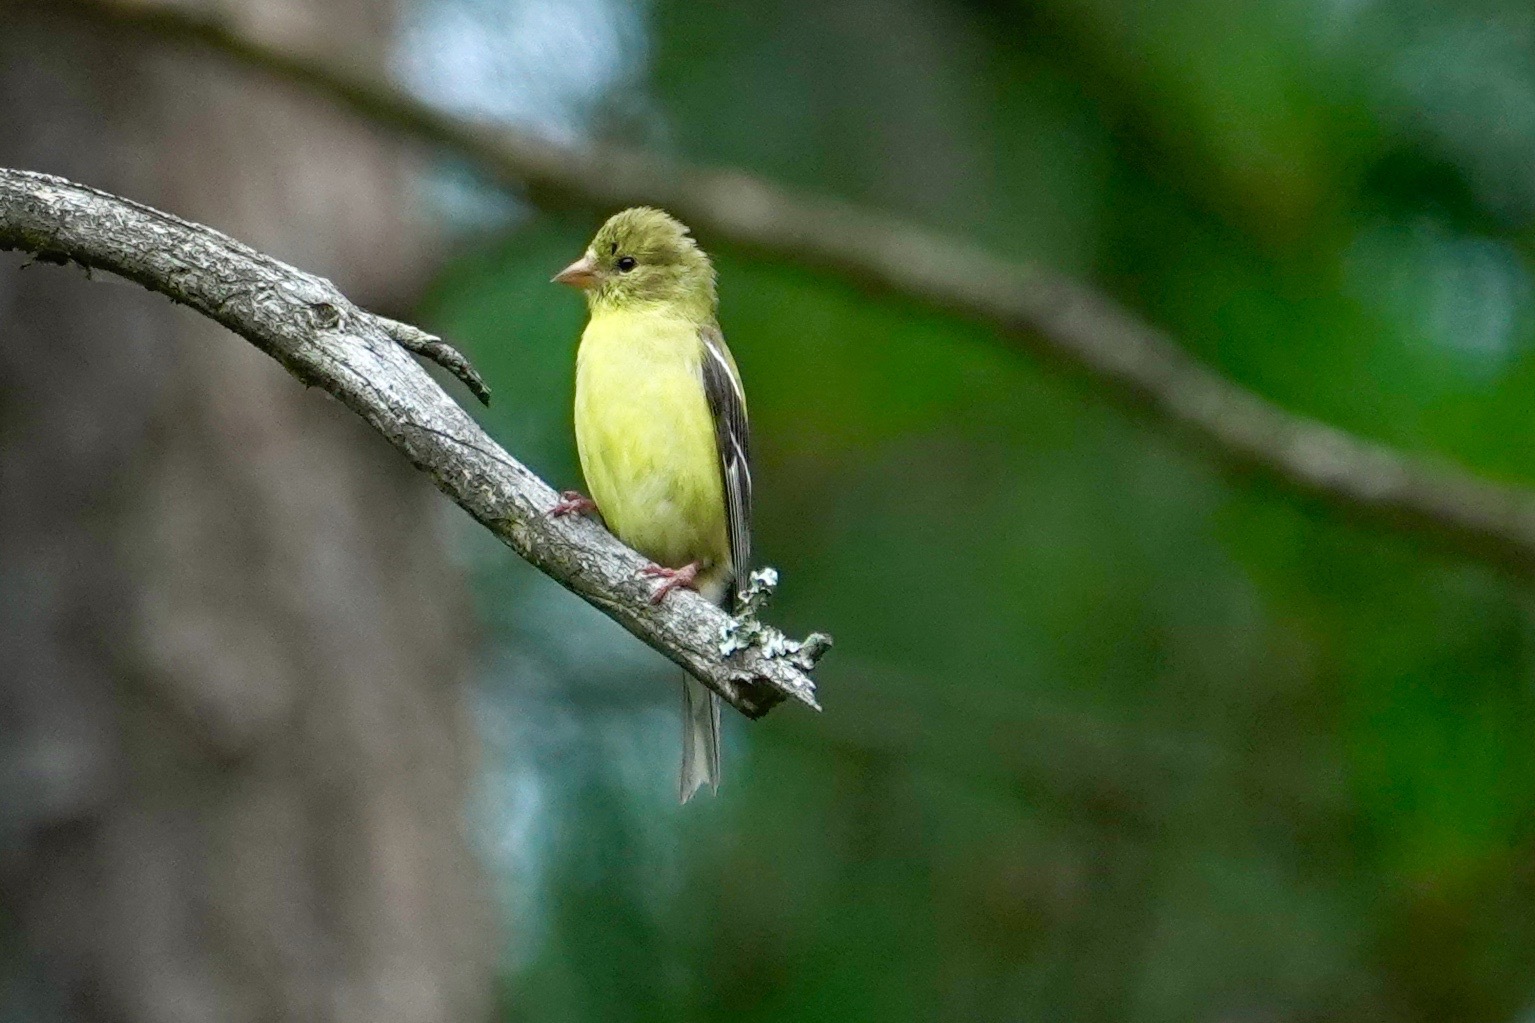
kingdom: Animalia
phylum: Chordata
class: Aves
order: Passeriformes
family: Fringillidae
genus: Spinus
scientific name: Spinus tristis
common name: American goldfinch
